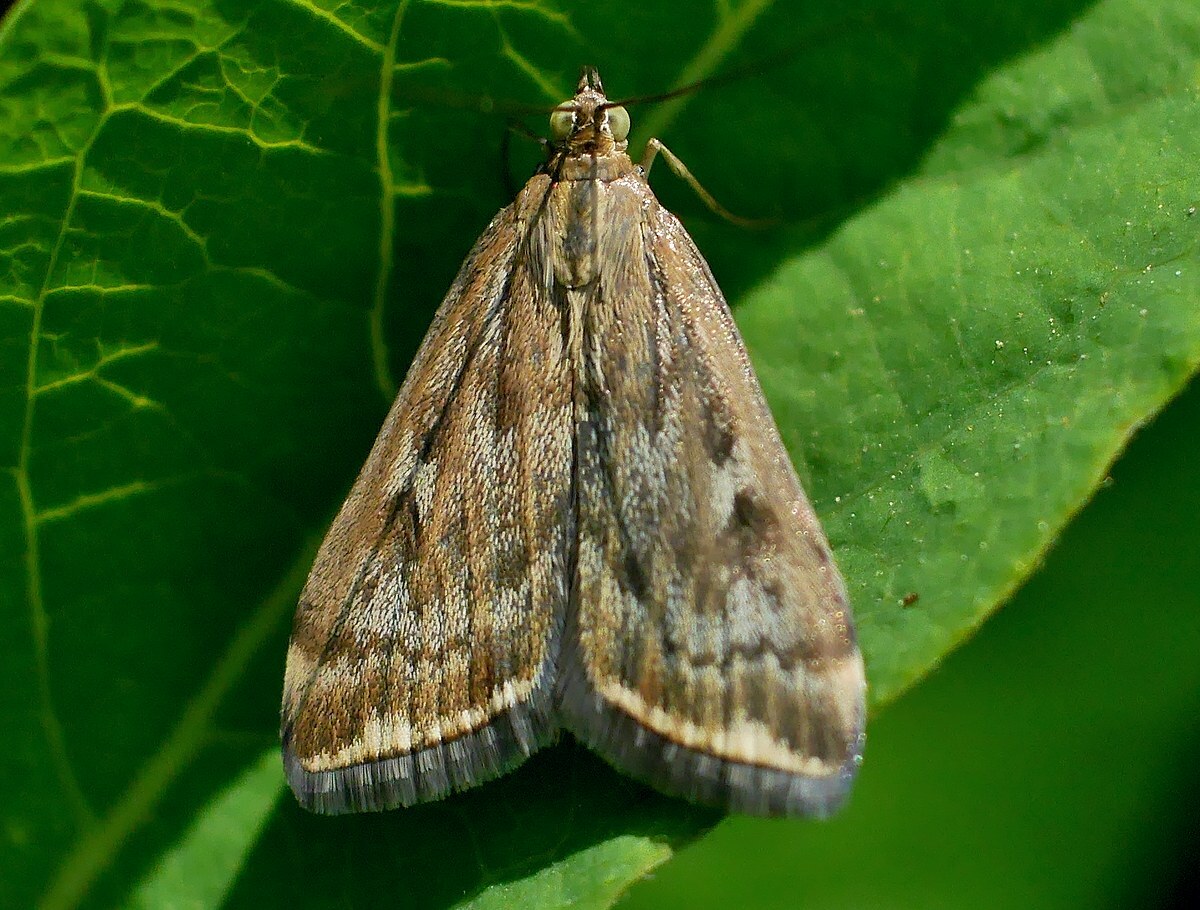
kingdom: Animalia
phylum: Arthropoda
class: Insecta
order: Lepidoptera
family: Crambidae
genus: Loxostege
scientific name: Loxostege sticticalis
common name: Crambid moth
